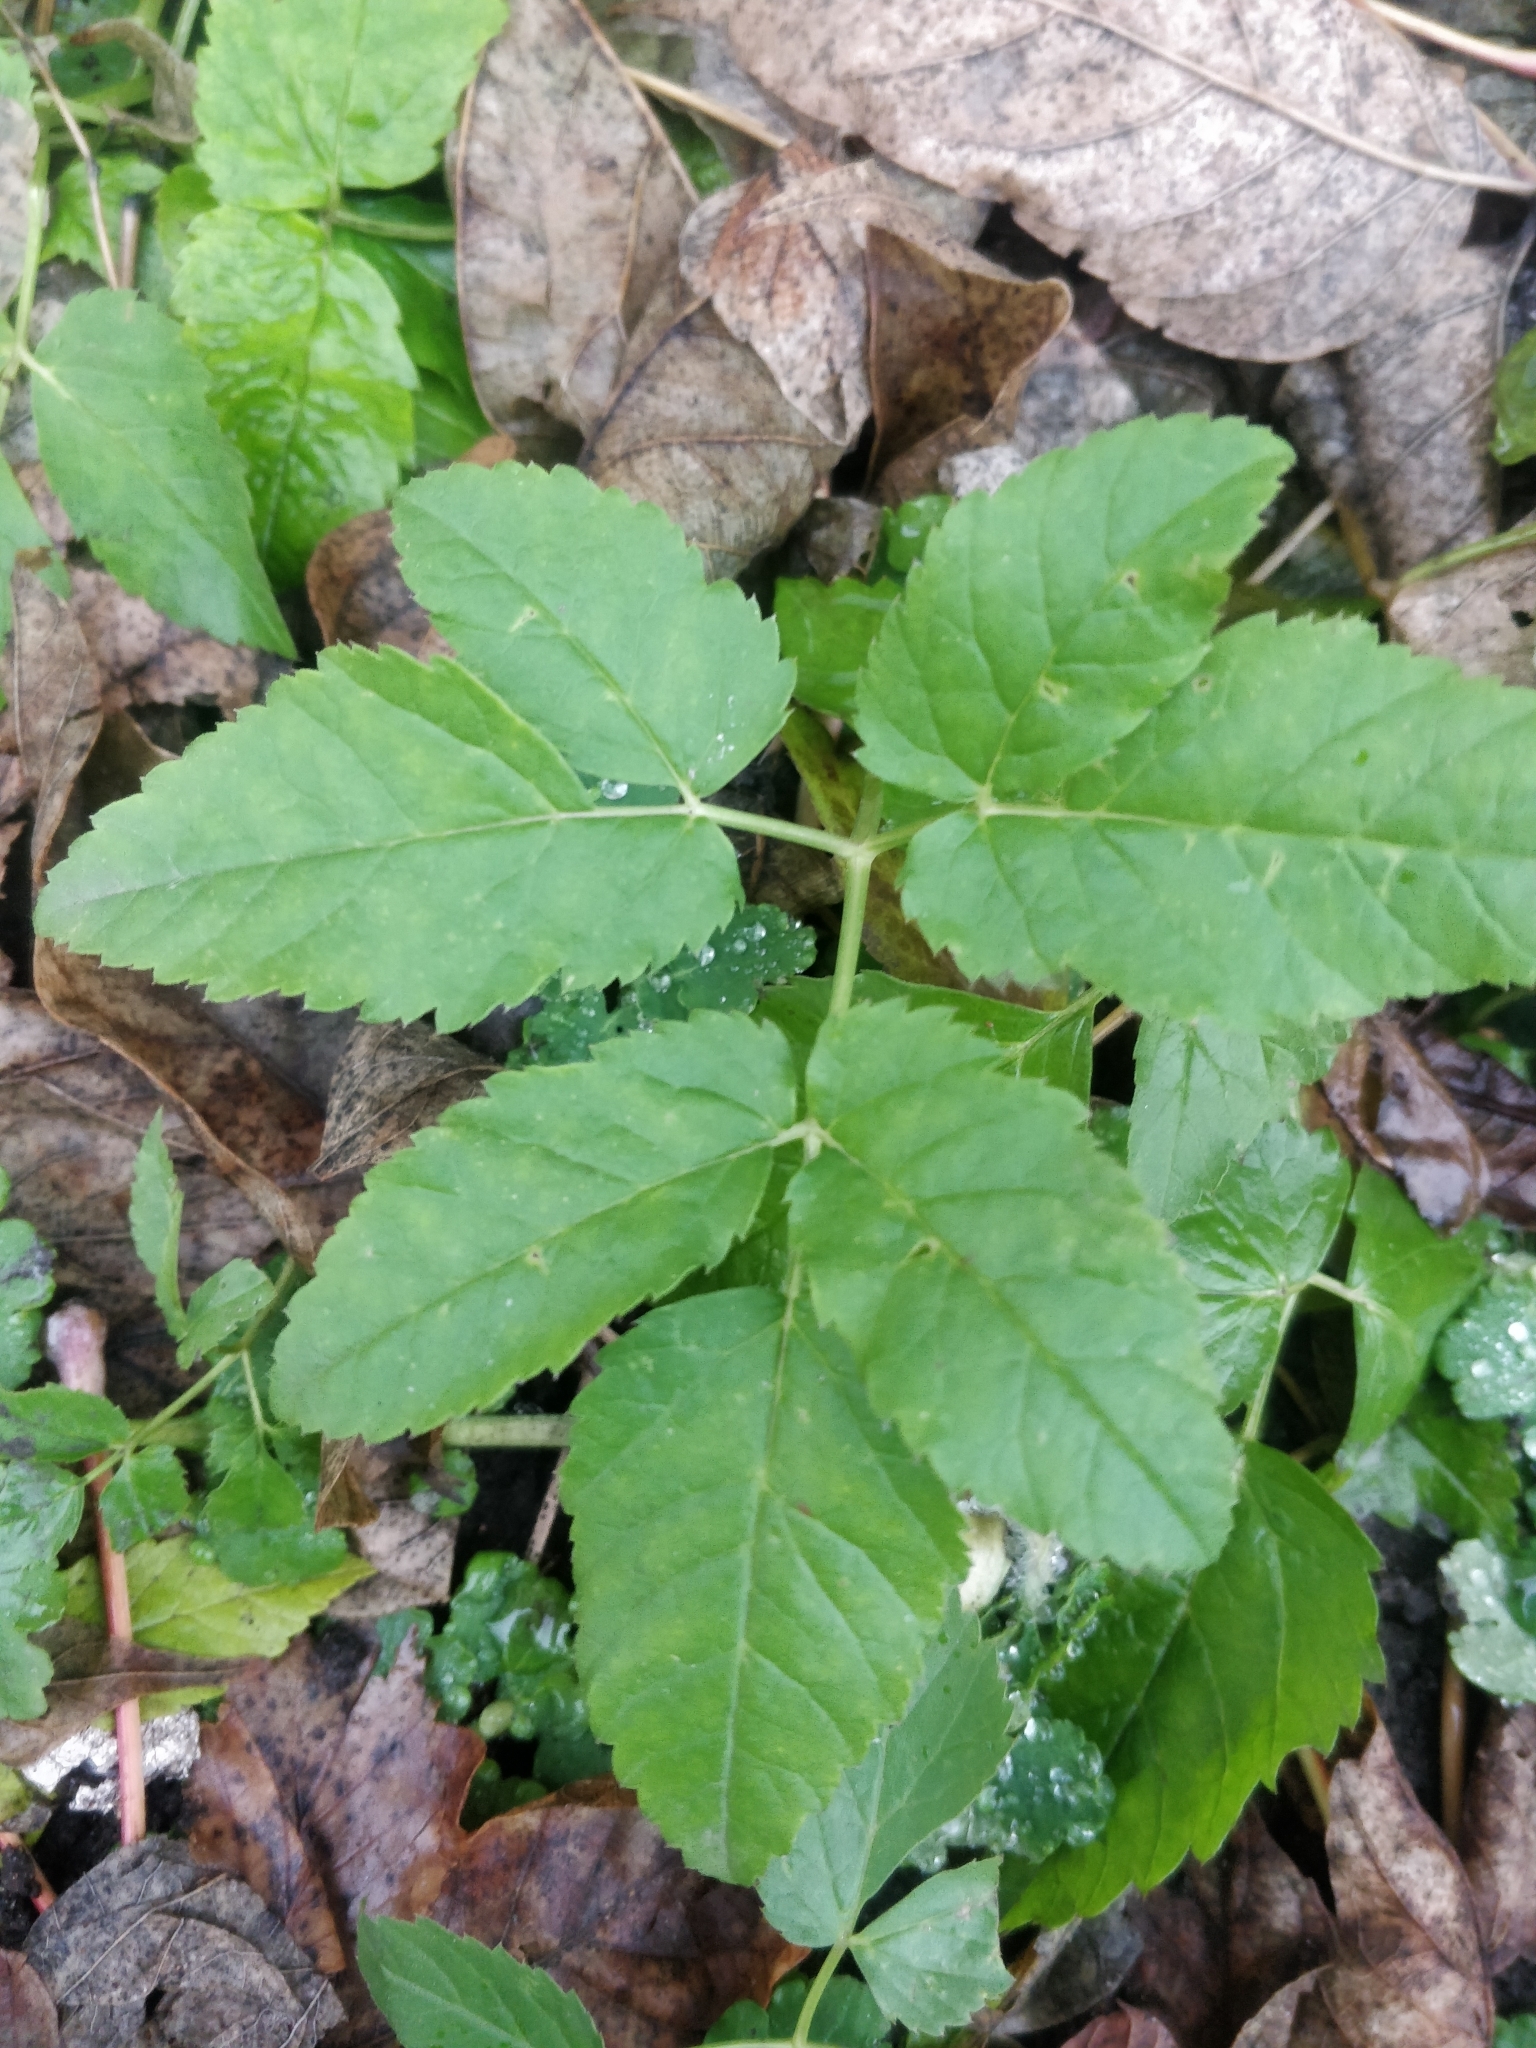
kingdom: Plantae
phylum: Tracheophyta
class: Magnoliopsida
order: Apiales
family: Apiaceae
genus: Aegopodium
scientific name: Aegopodium podagraria
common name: Ground-elder
